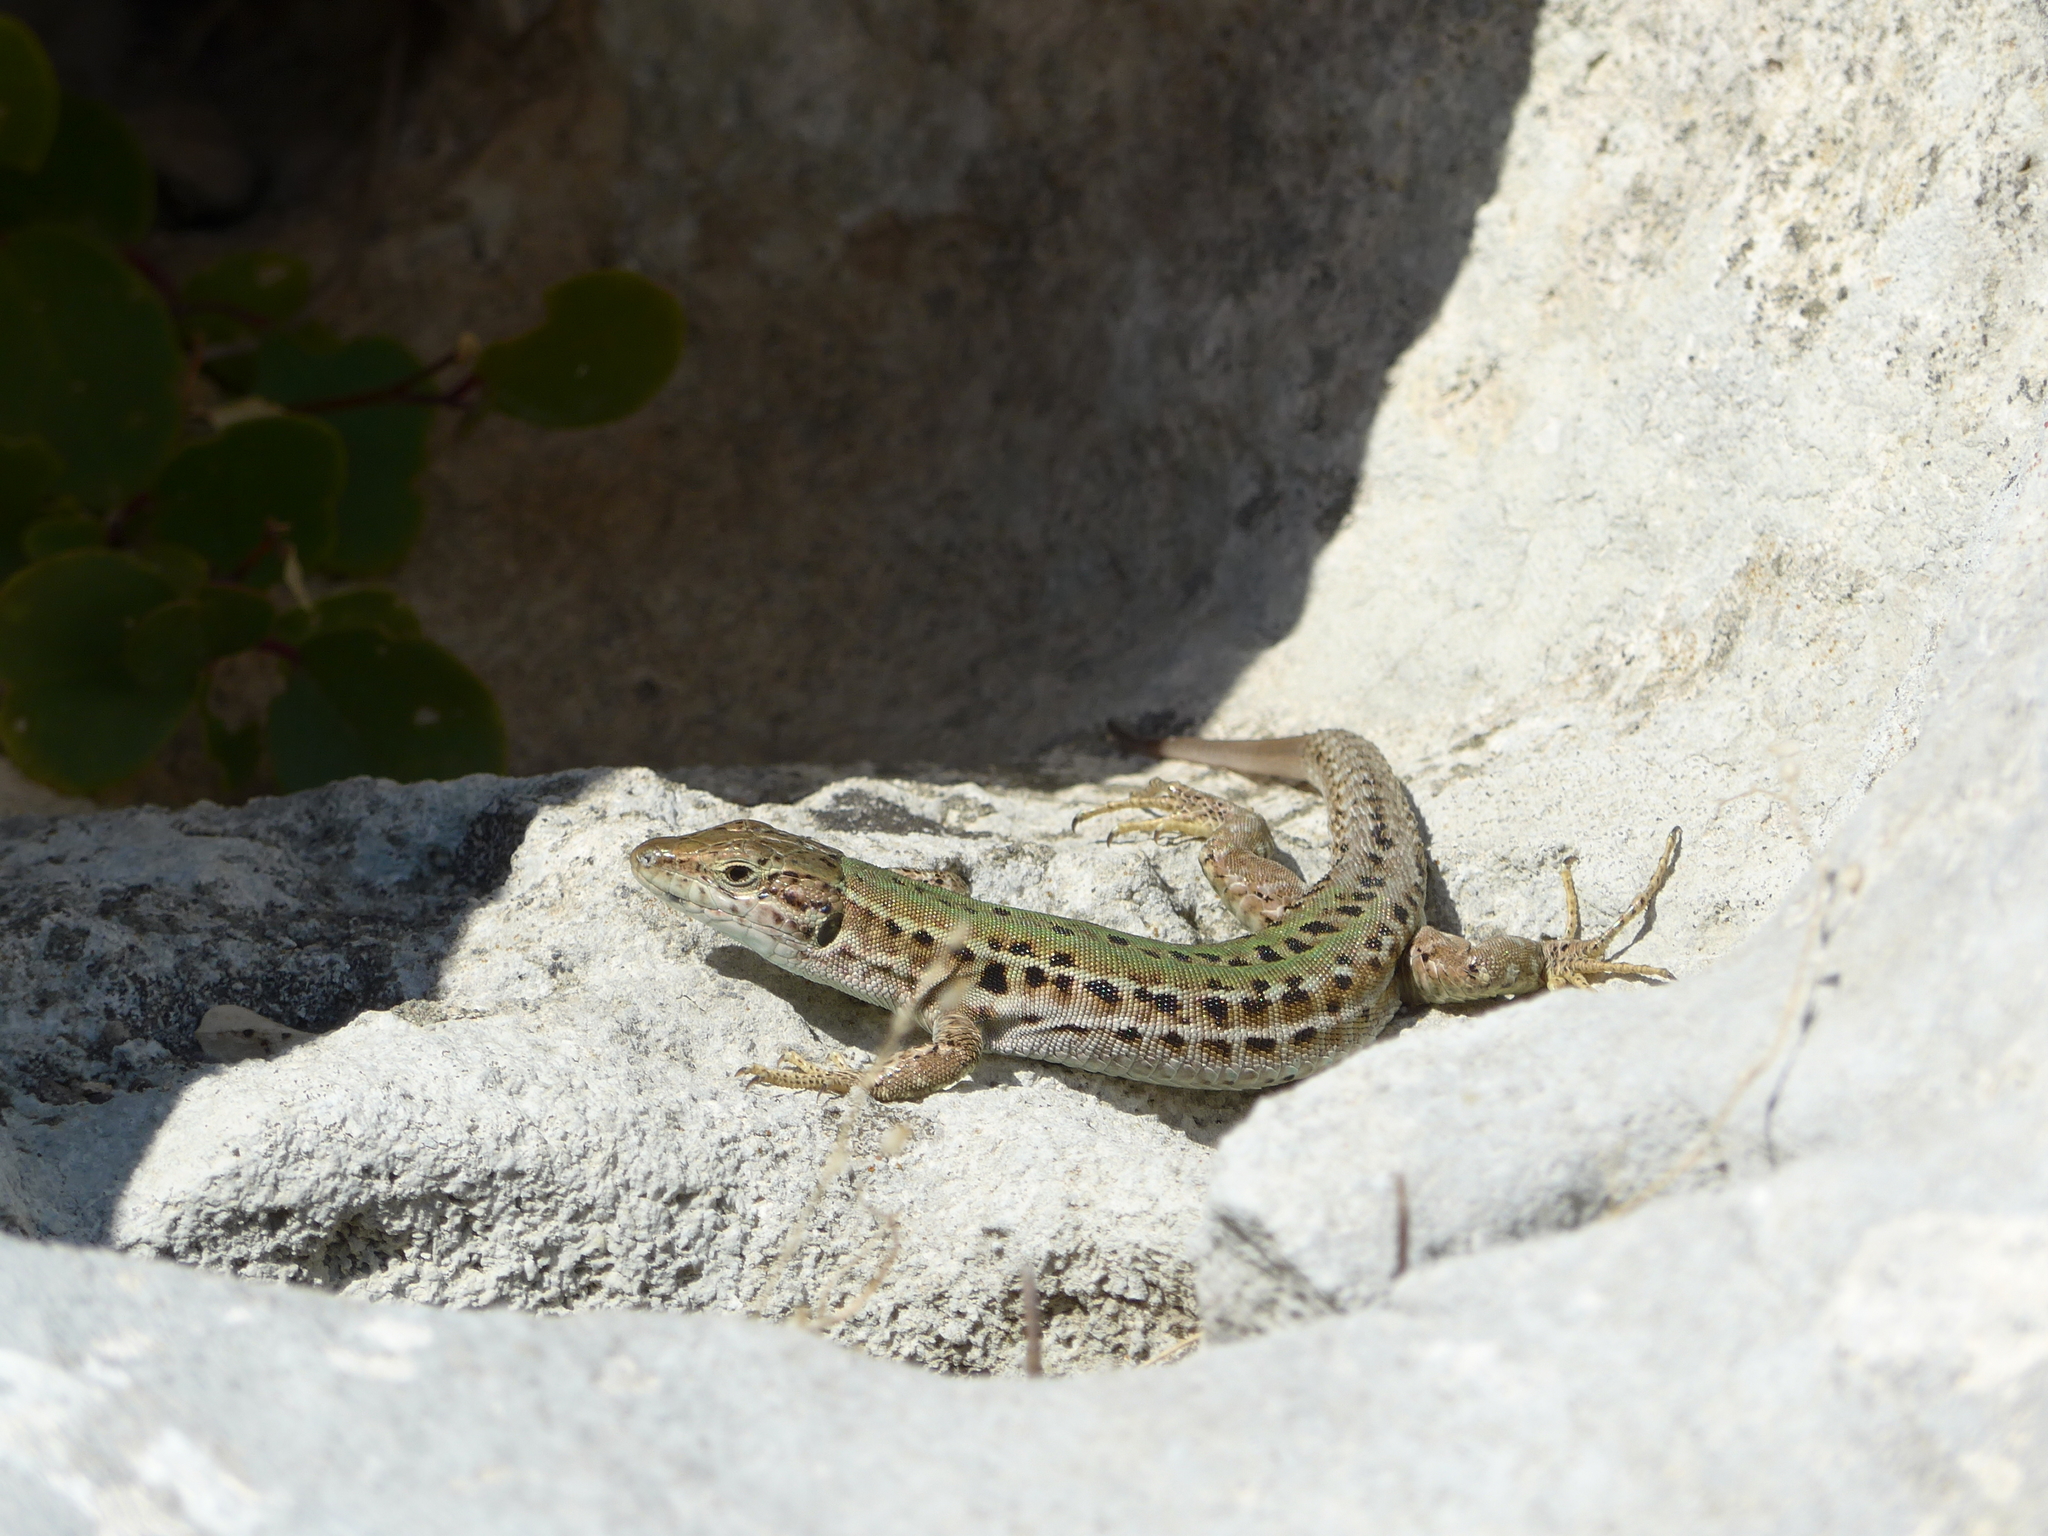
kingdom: Animalia
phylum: Chordata
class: Squamata
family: Lacertidae
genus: Podarcis
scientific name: Podarcis siculus
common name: Italian wall lizard
